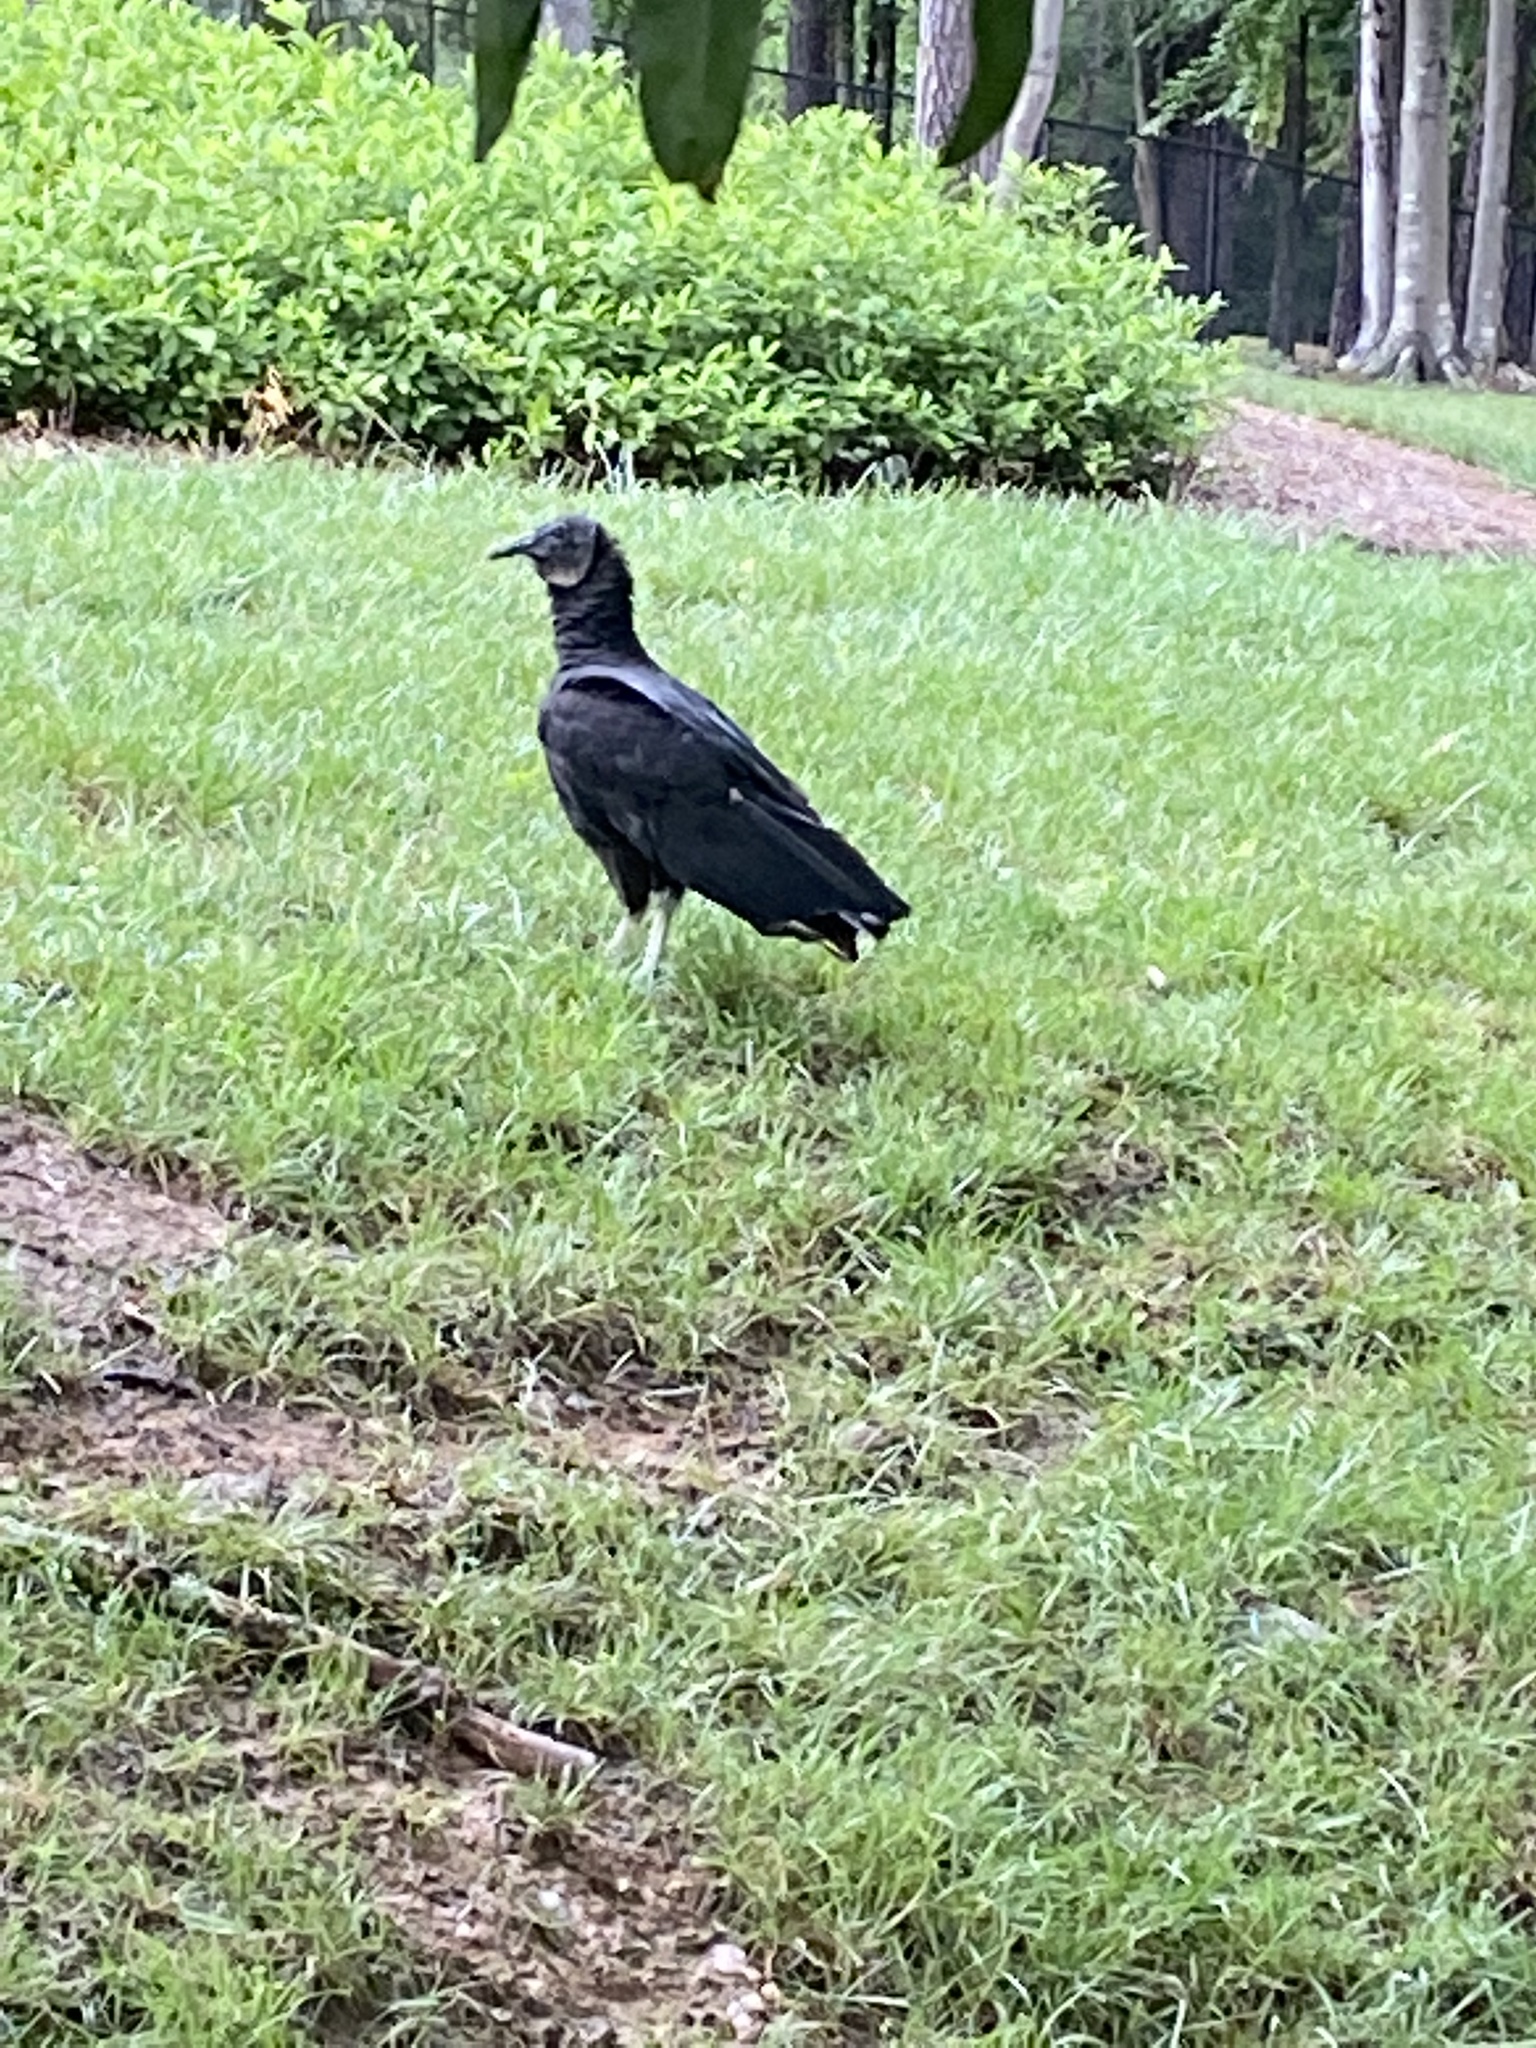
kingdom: Animalia
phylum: Chordata
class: Aves
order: Accipitriformes
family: Cathartidae
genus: Coragyps
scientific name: Coragyps atratus
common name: Black vulture
